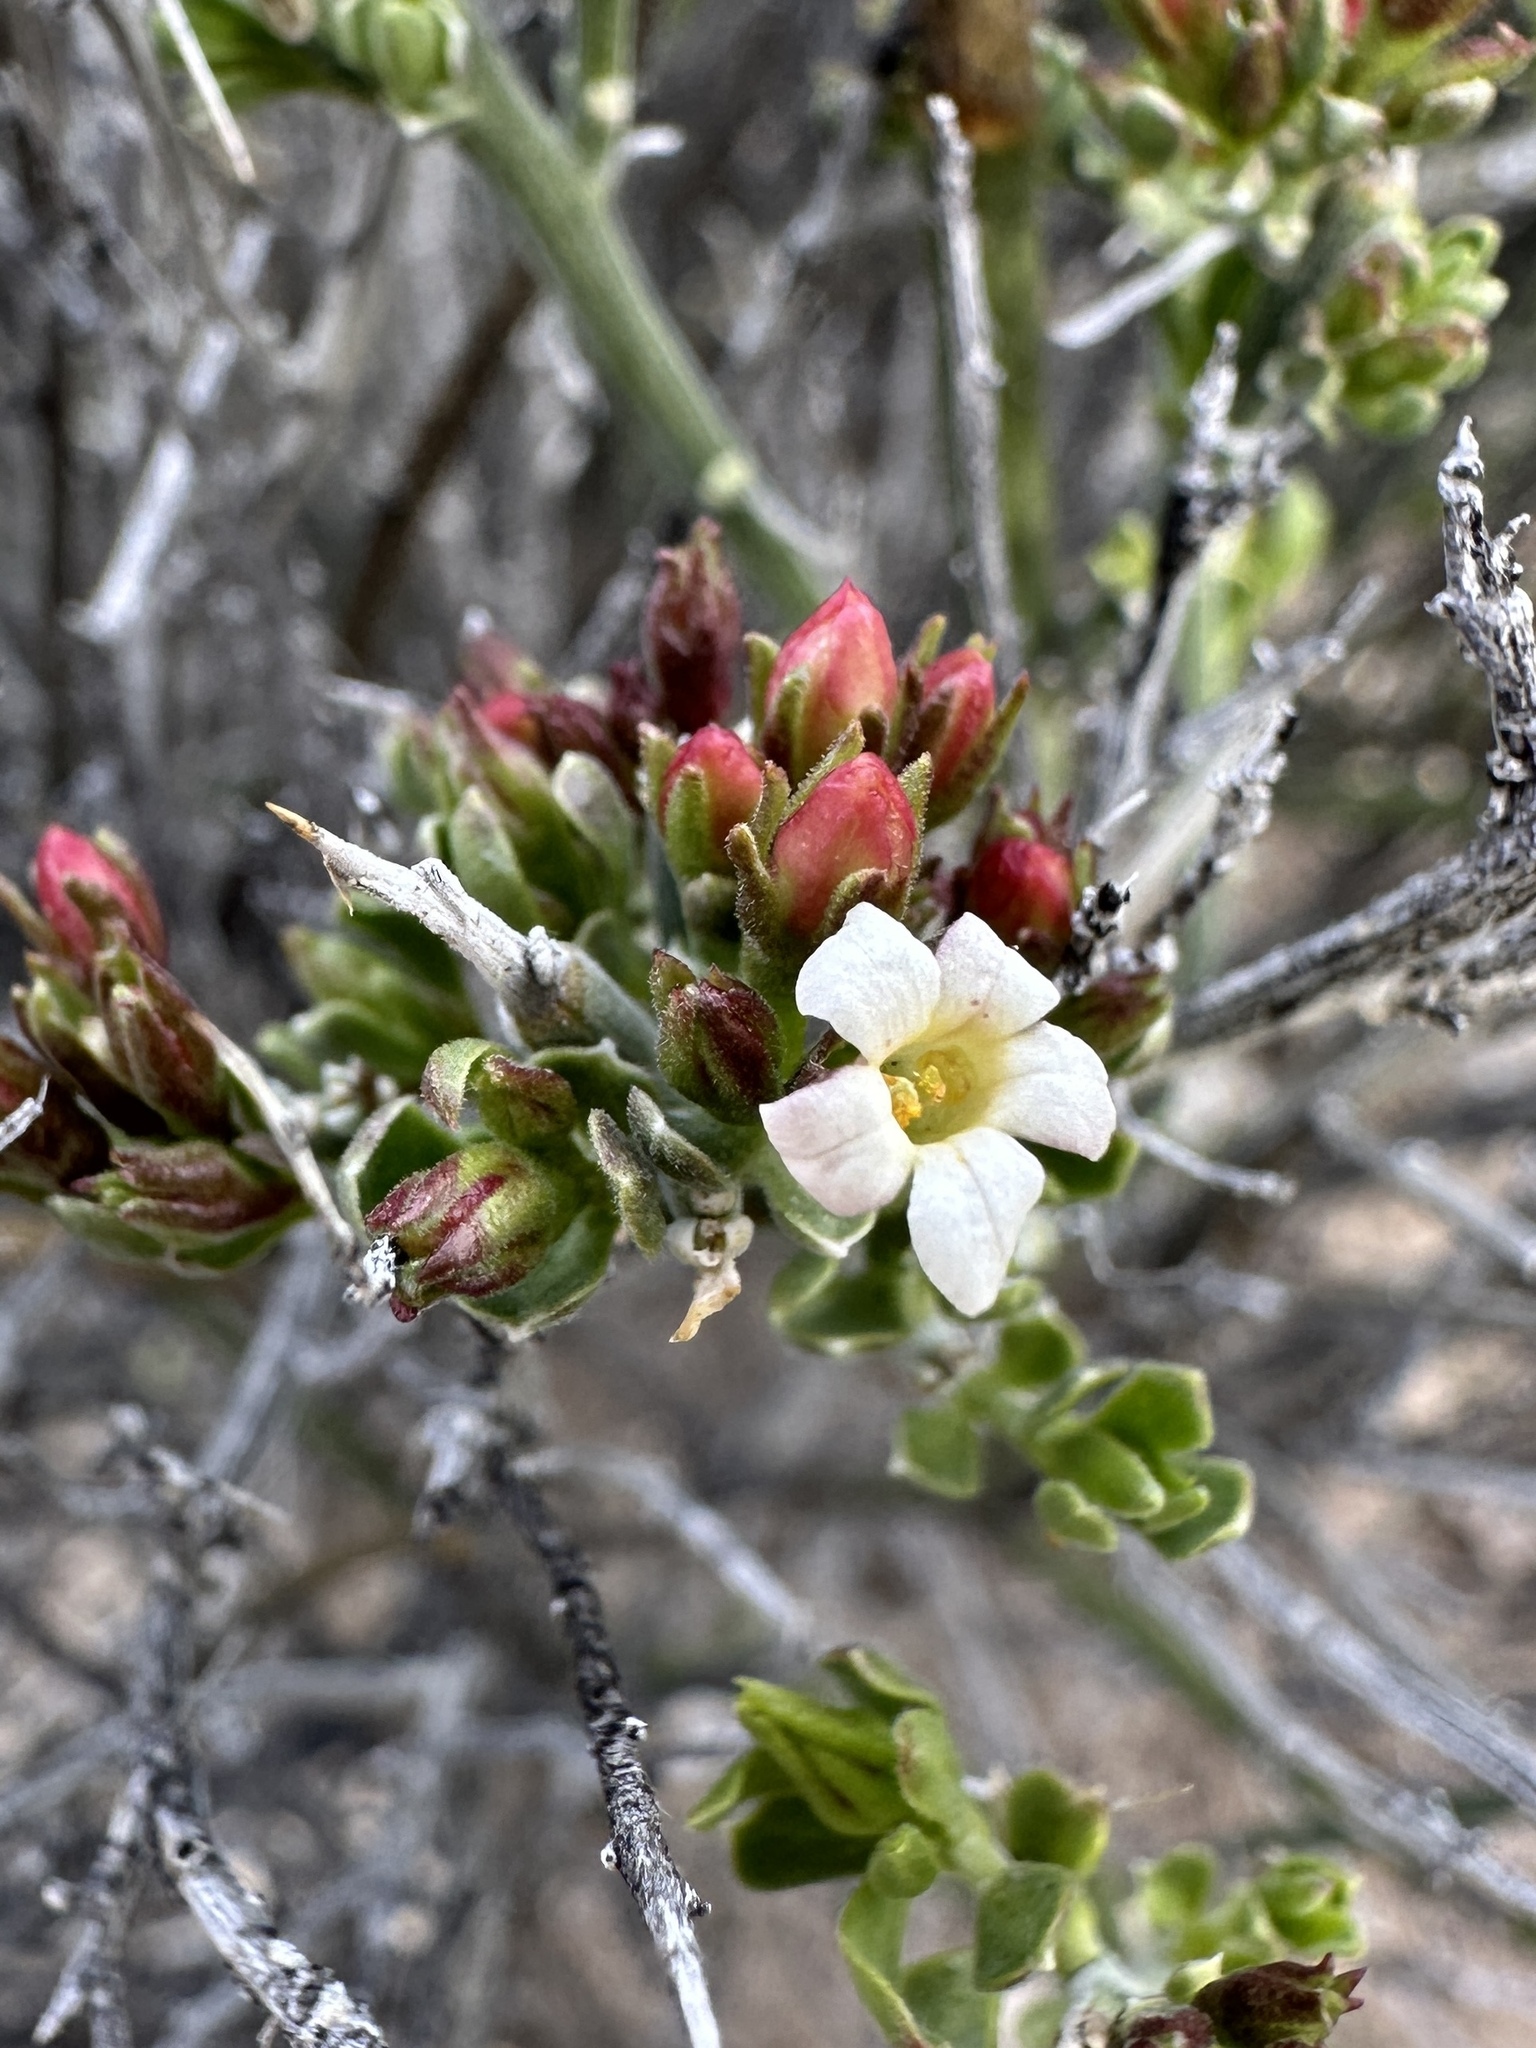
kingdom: Plantae
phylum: Tracheophyta
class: Magnoliopsida
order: Lamiales
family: Oleaceae
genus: Menodora
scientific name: Menodora spinescens
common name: Spiny menodora
